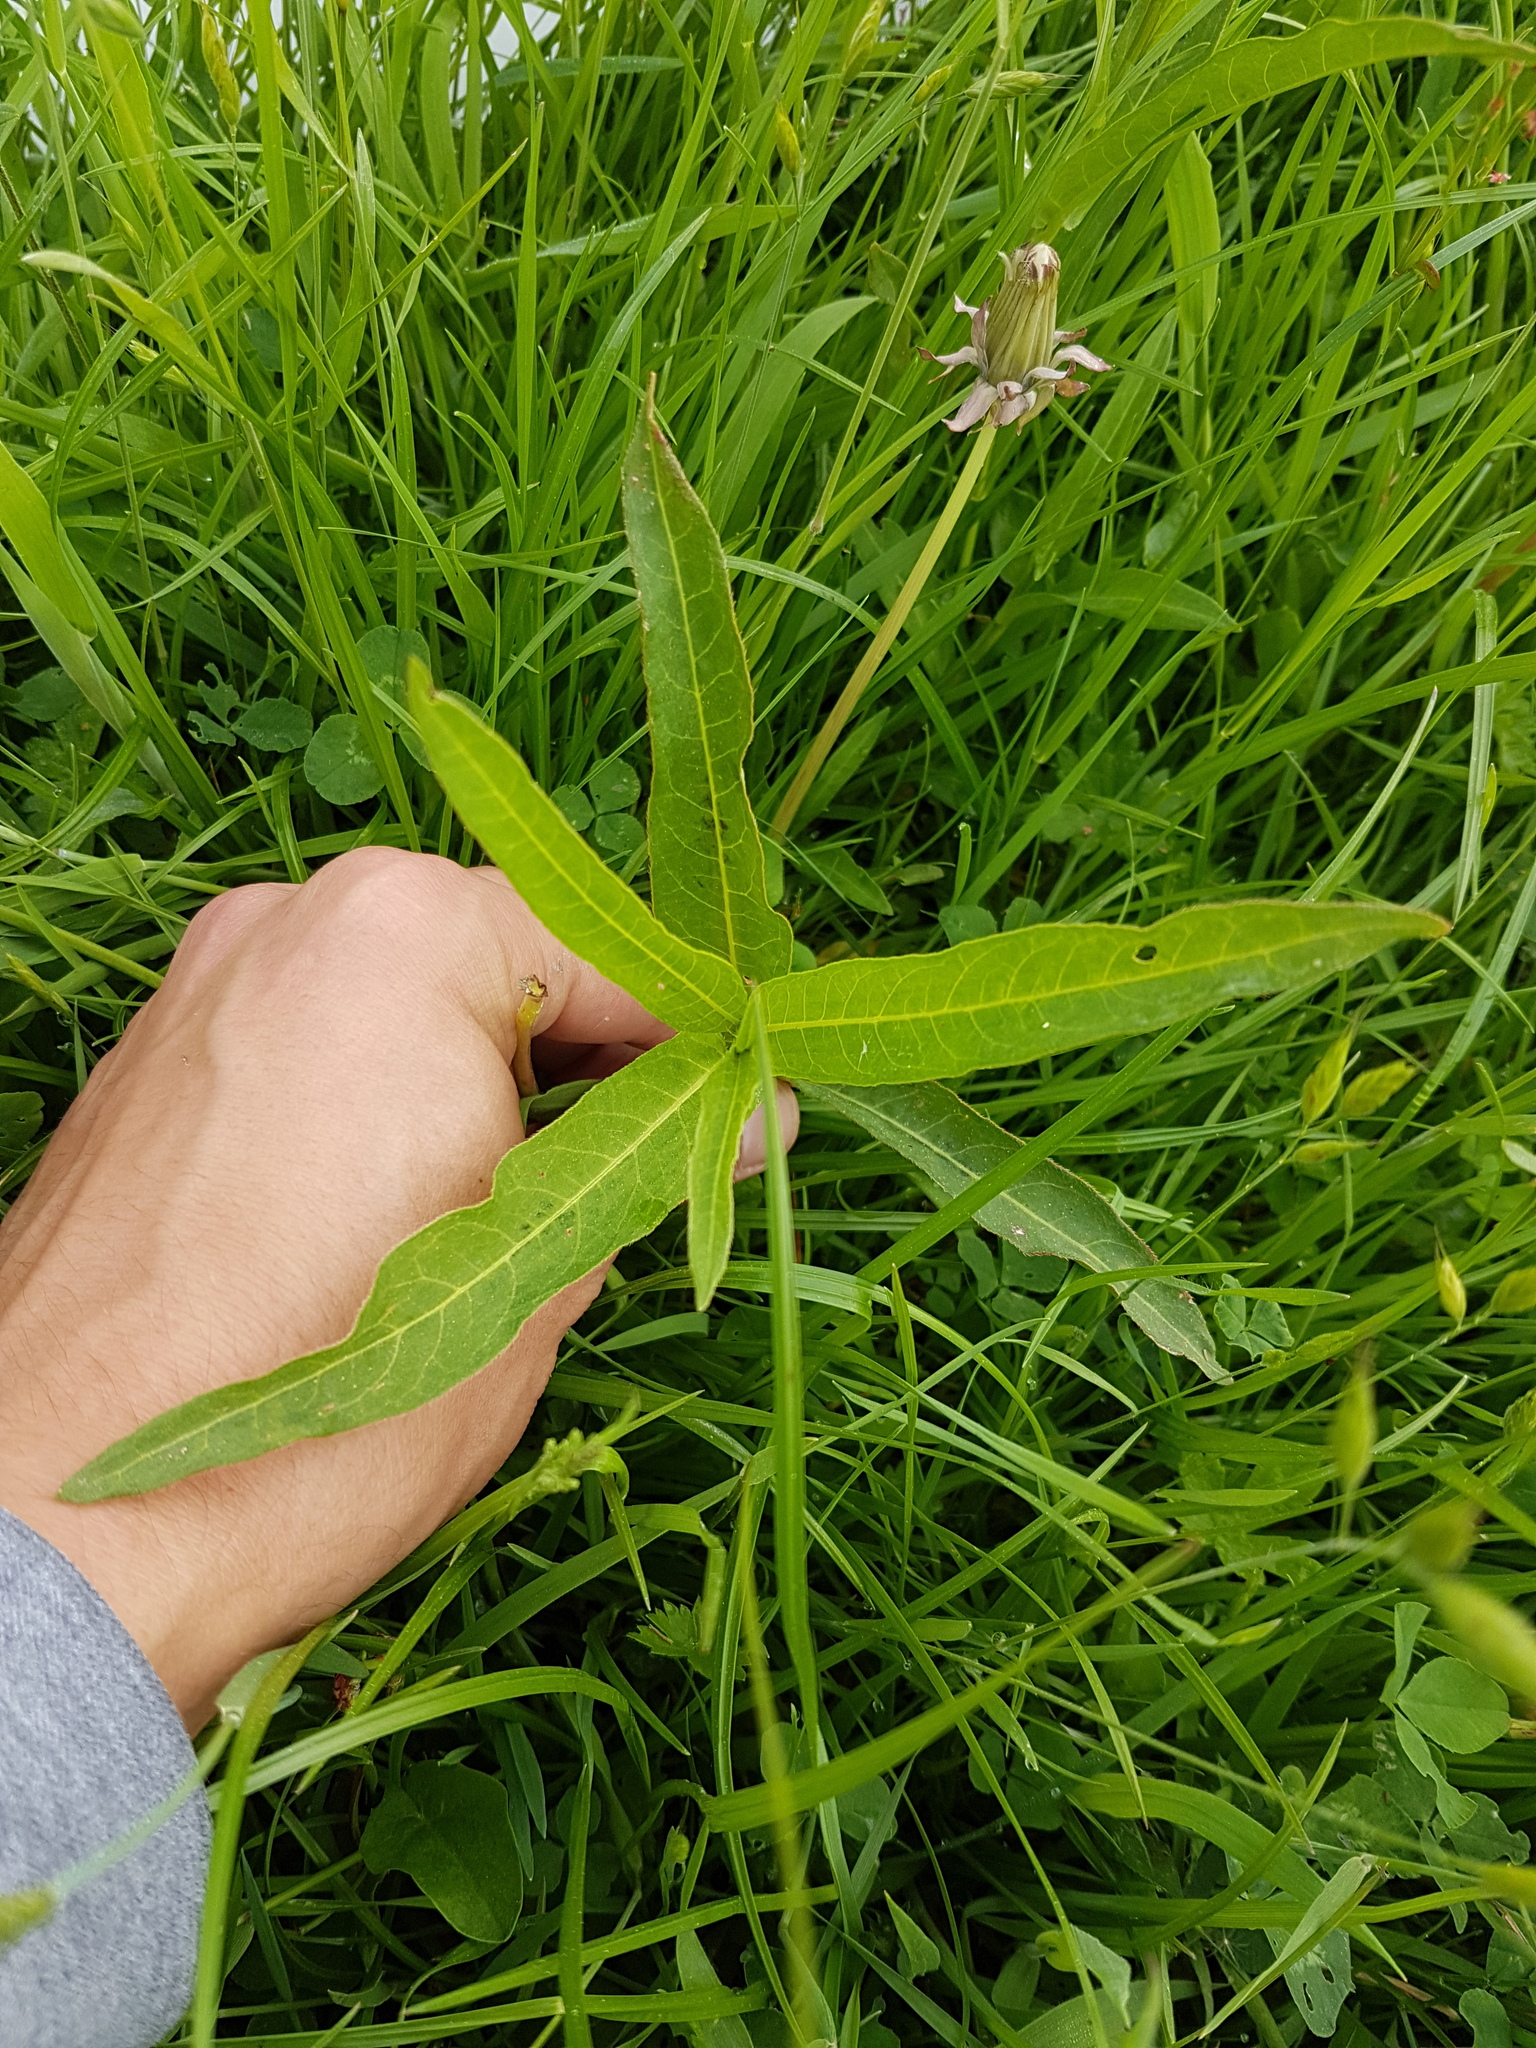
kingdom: Plantae
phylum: Tracheophyta
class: Magnoliopsida
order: Caryophyllales
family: Polygonaceae
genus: Persicaria
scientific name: Persicaria amphibia
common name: Amphibious bistort
